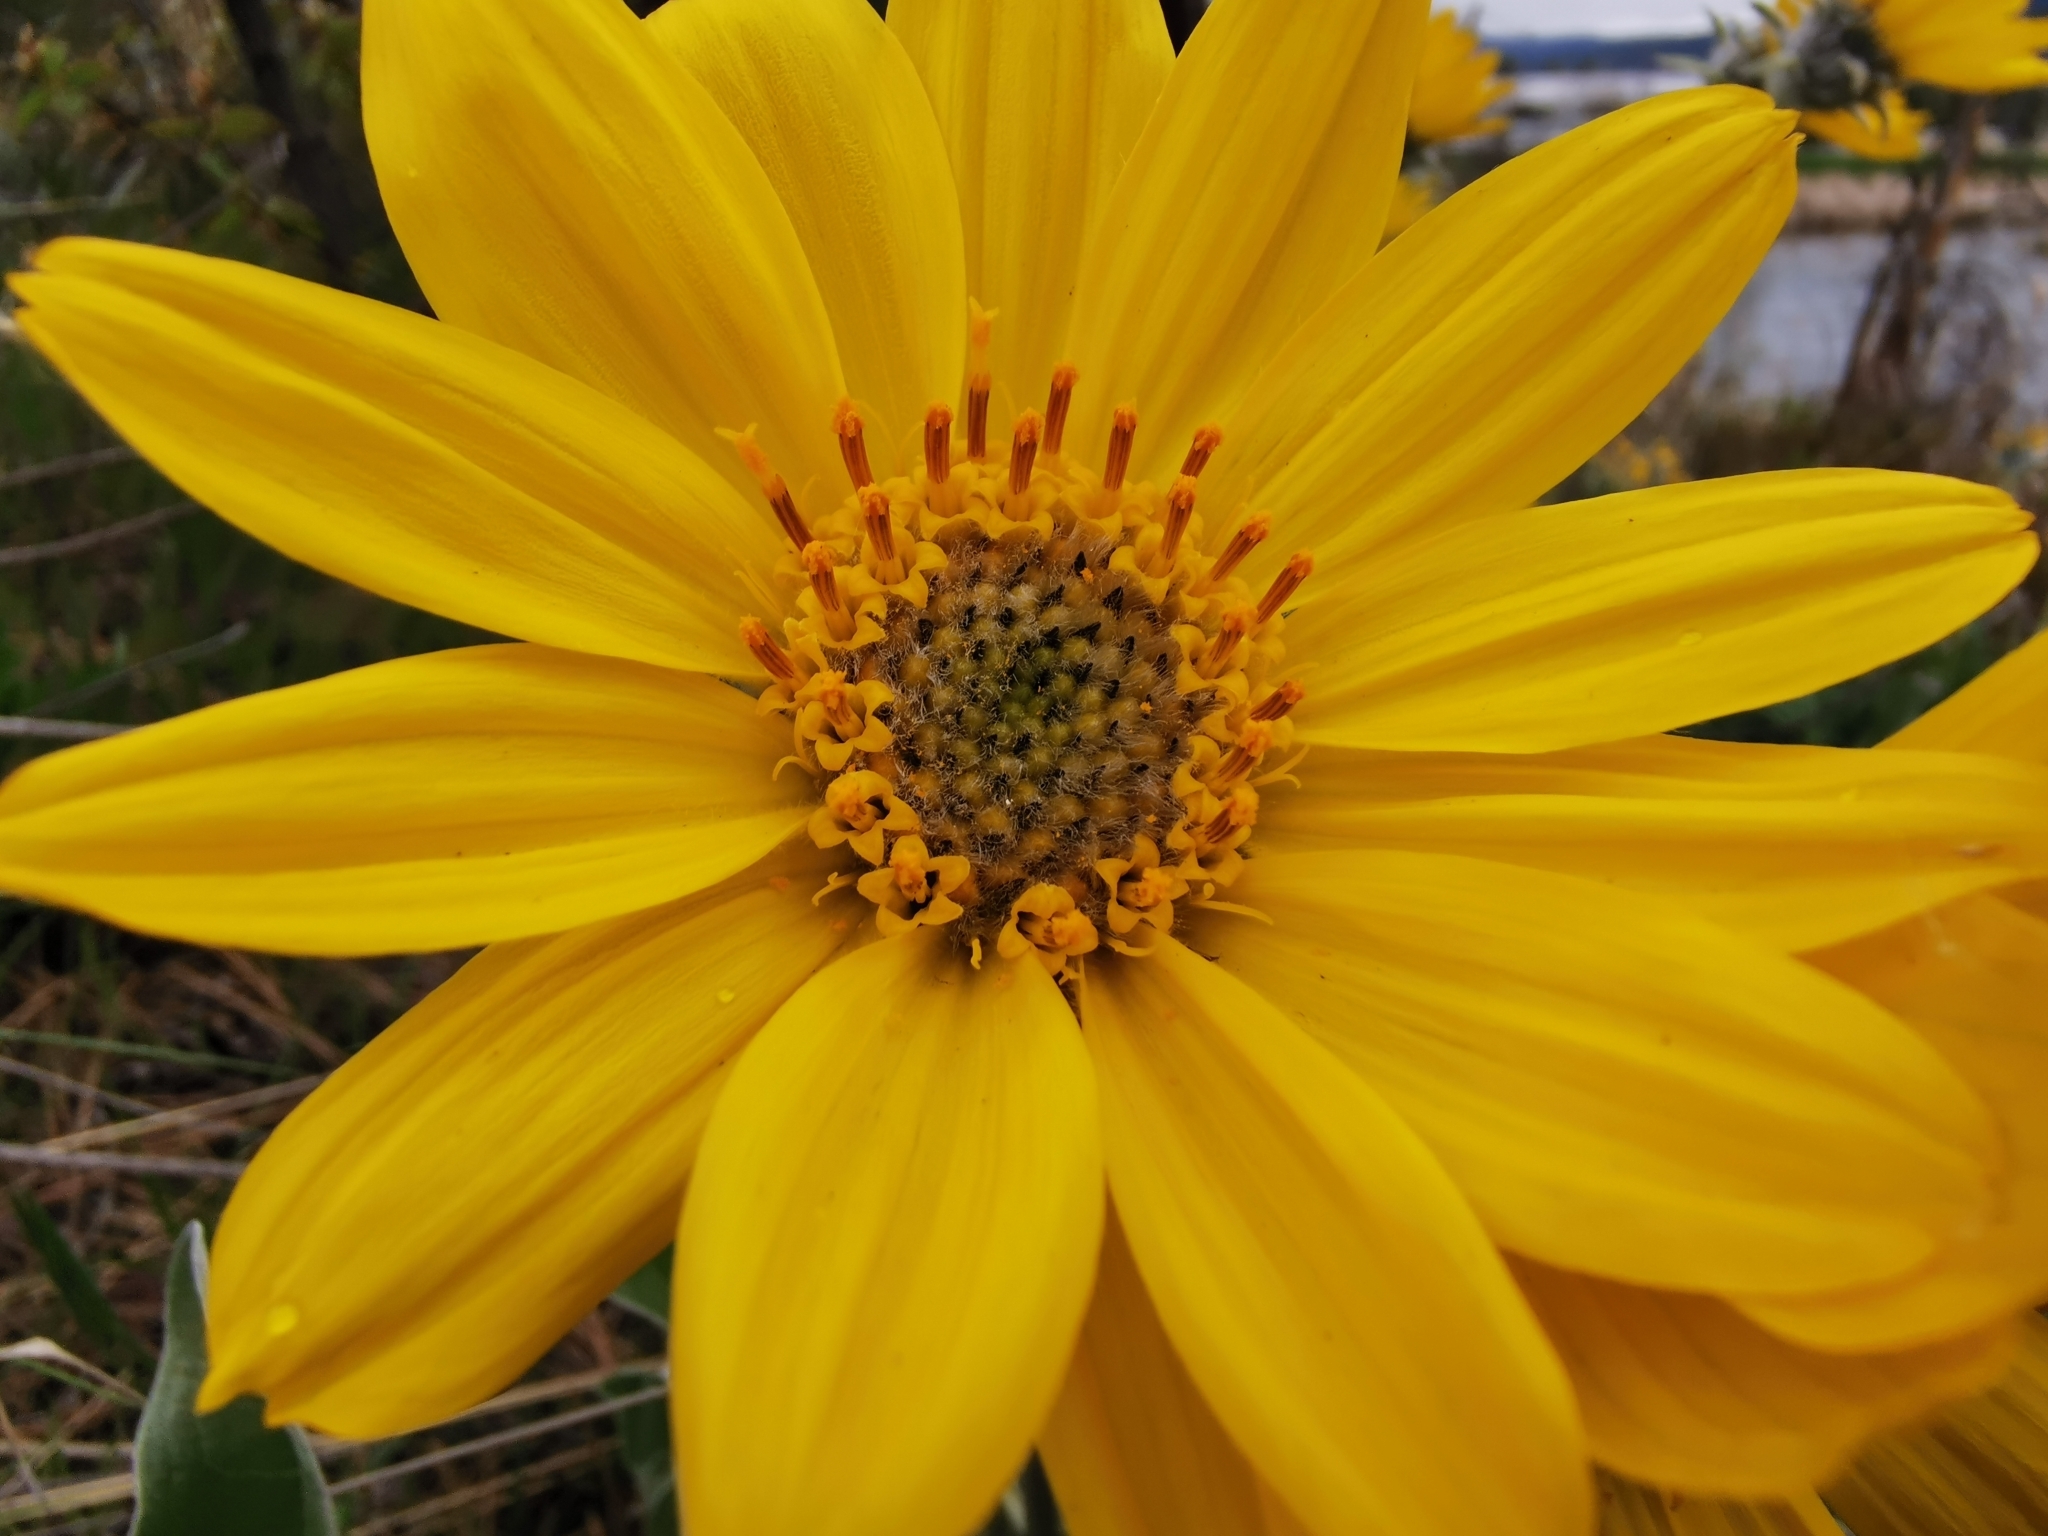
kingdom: Plantae
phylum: Tracheophyta
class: Magnoliopsida
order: Asterales
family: Asteraceae
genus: Wyethia
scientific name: Wyethia sagittata
